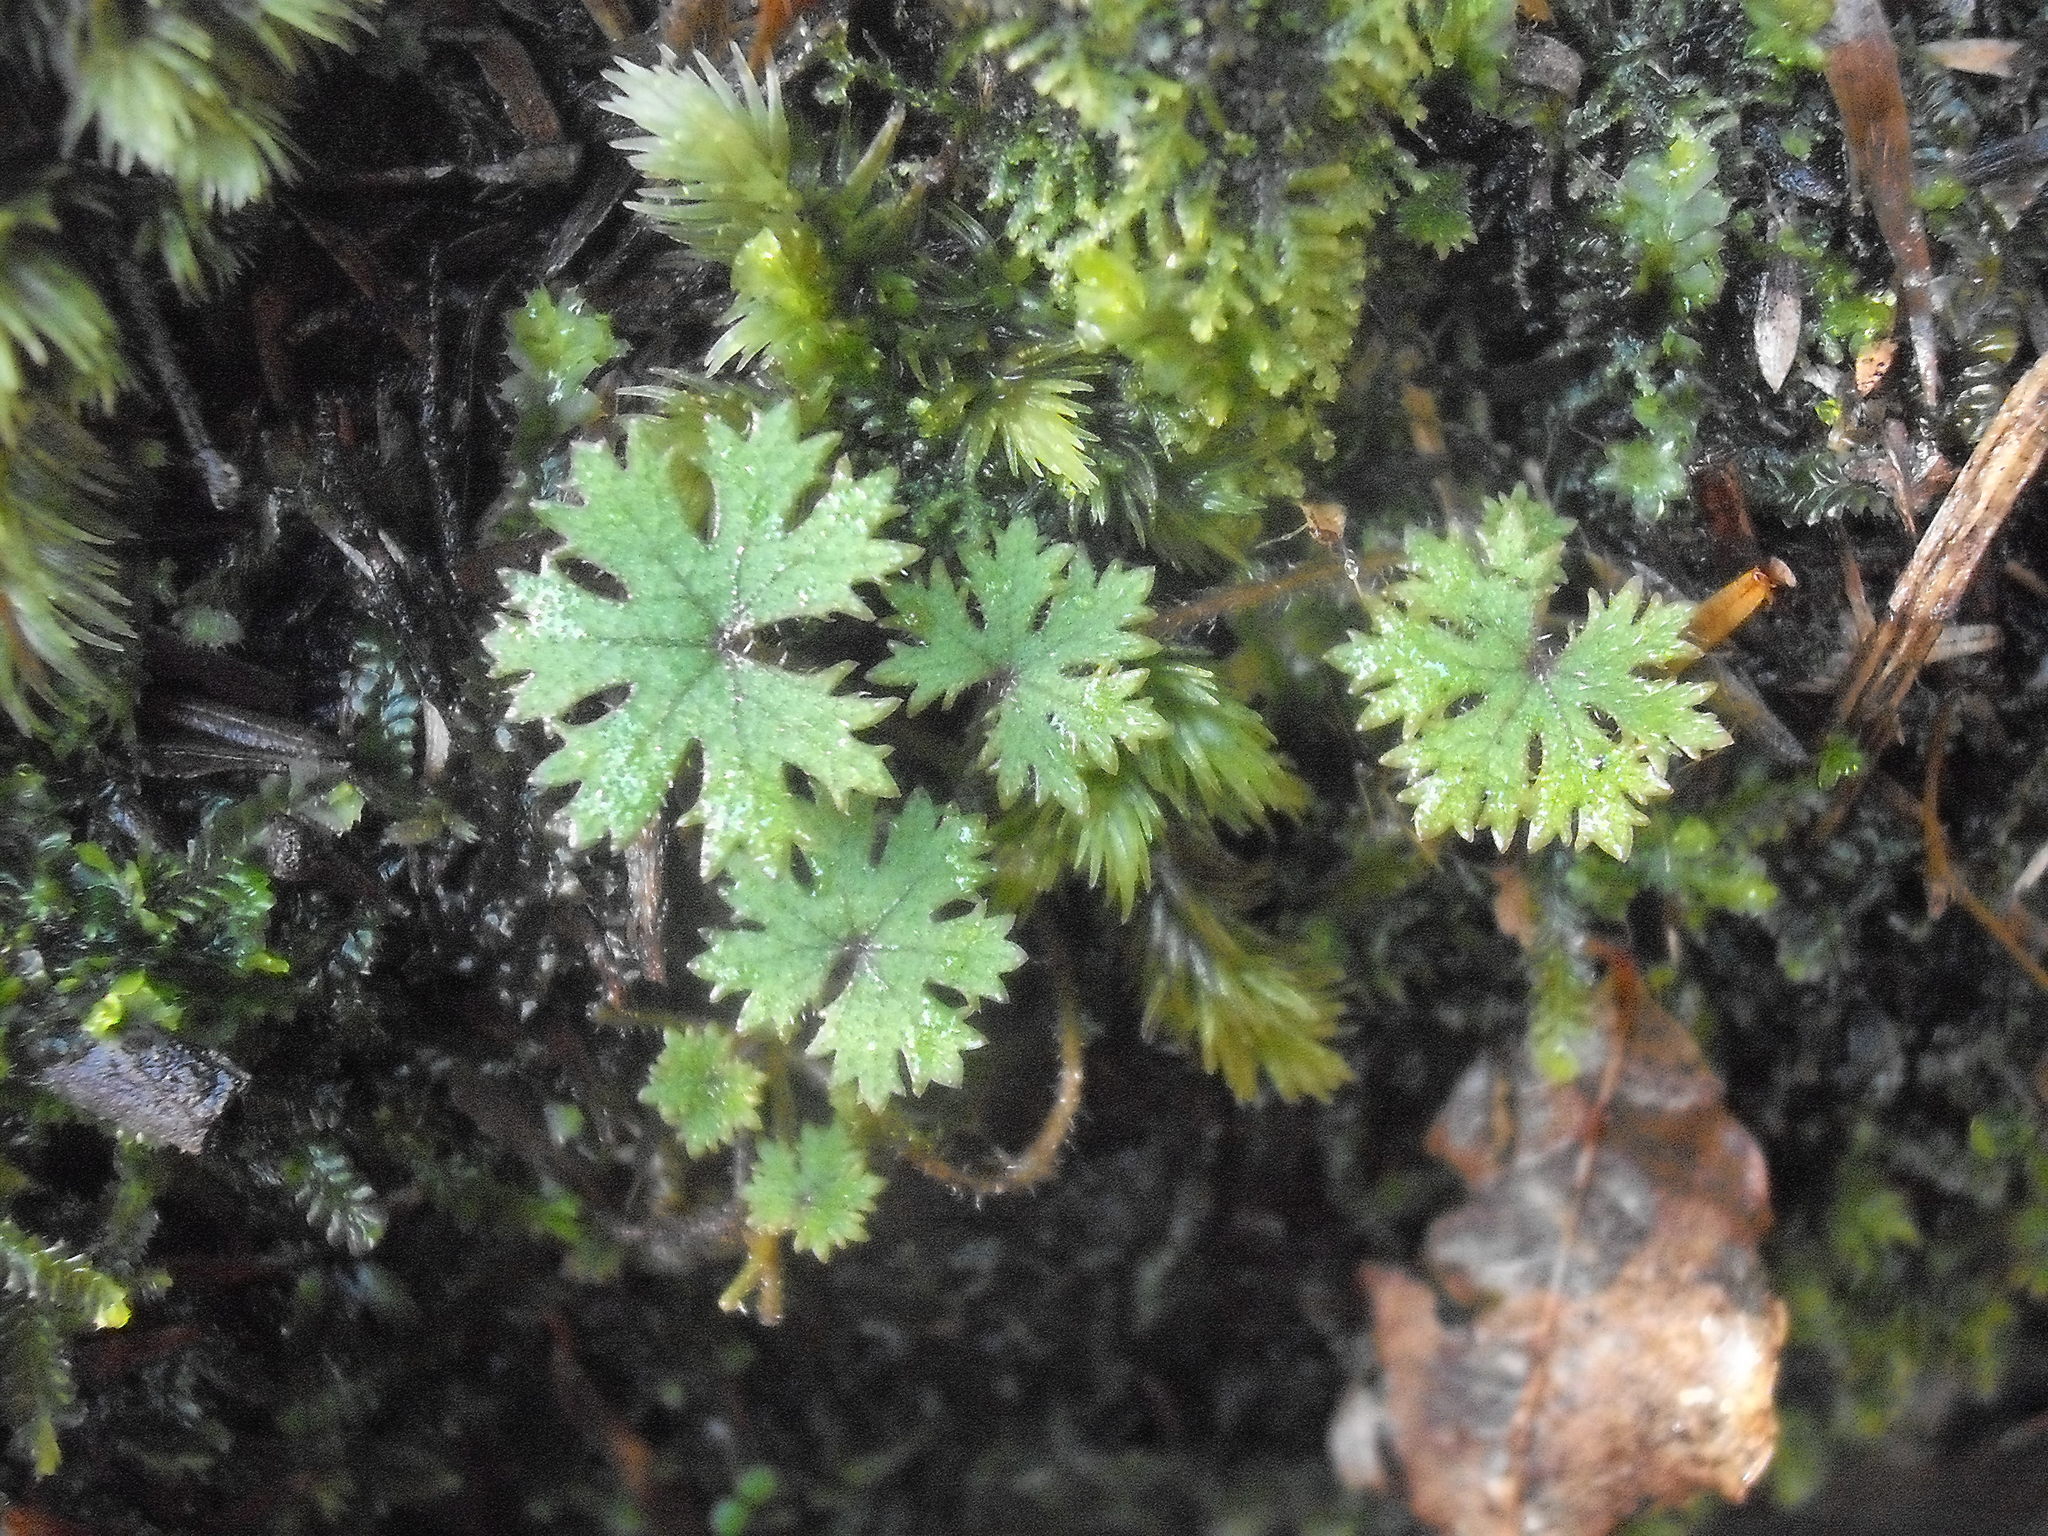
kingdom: Plantae
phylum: Tracheophyta
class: Magnoliopsida
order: Apiales
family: Araliaceae
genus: Hydrocotyle
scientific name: Hydrocotyle dissecta
